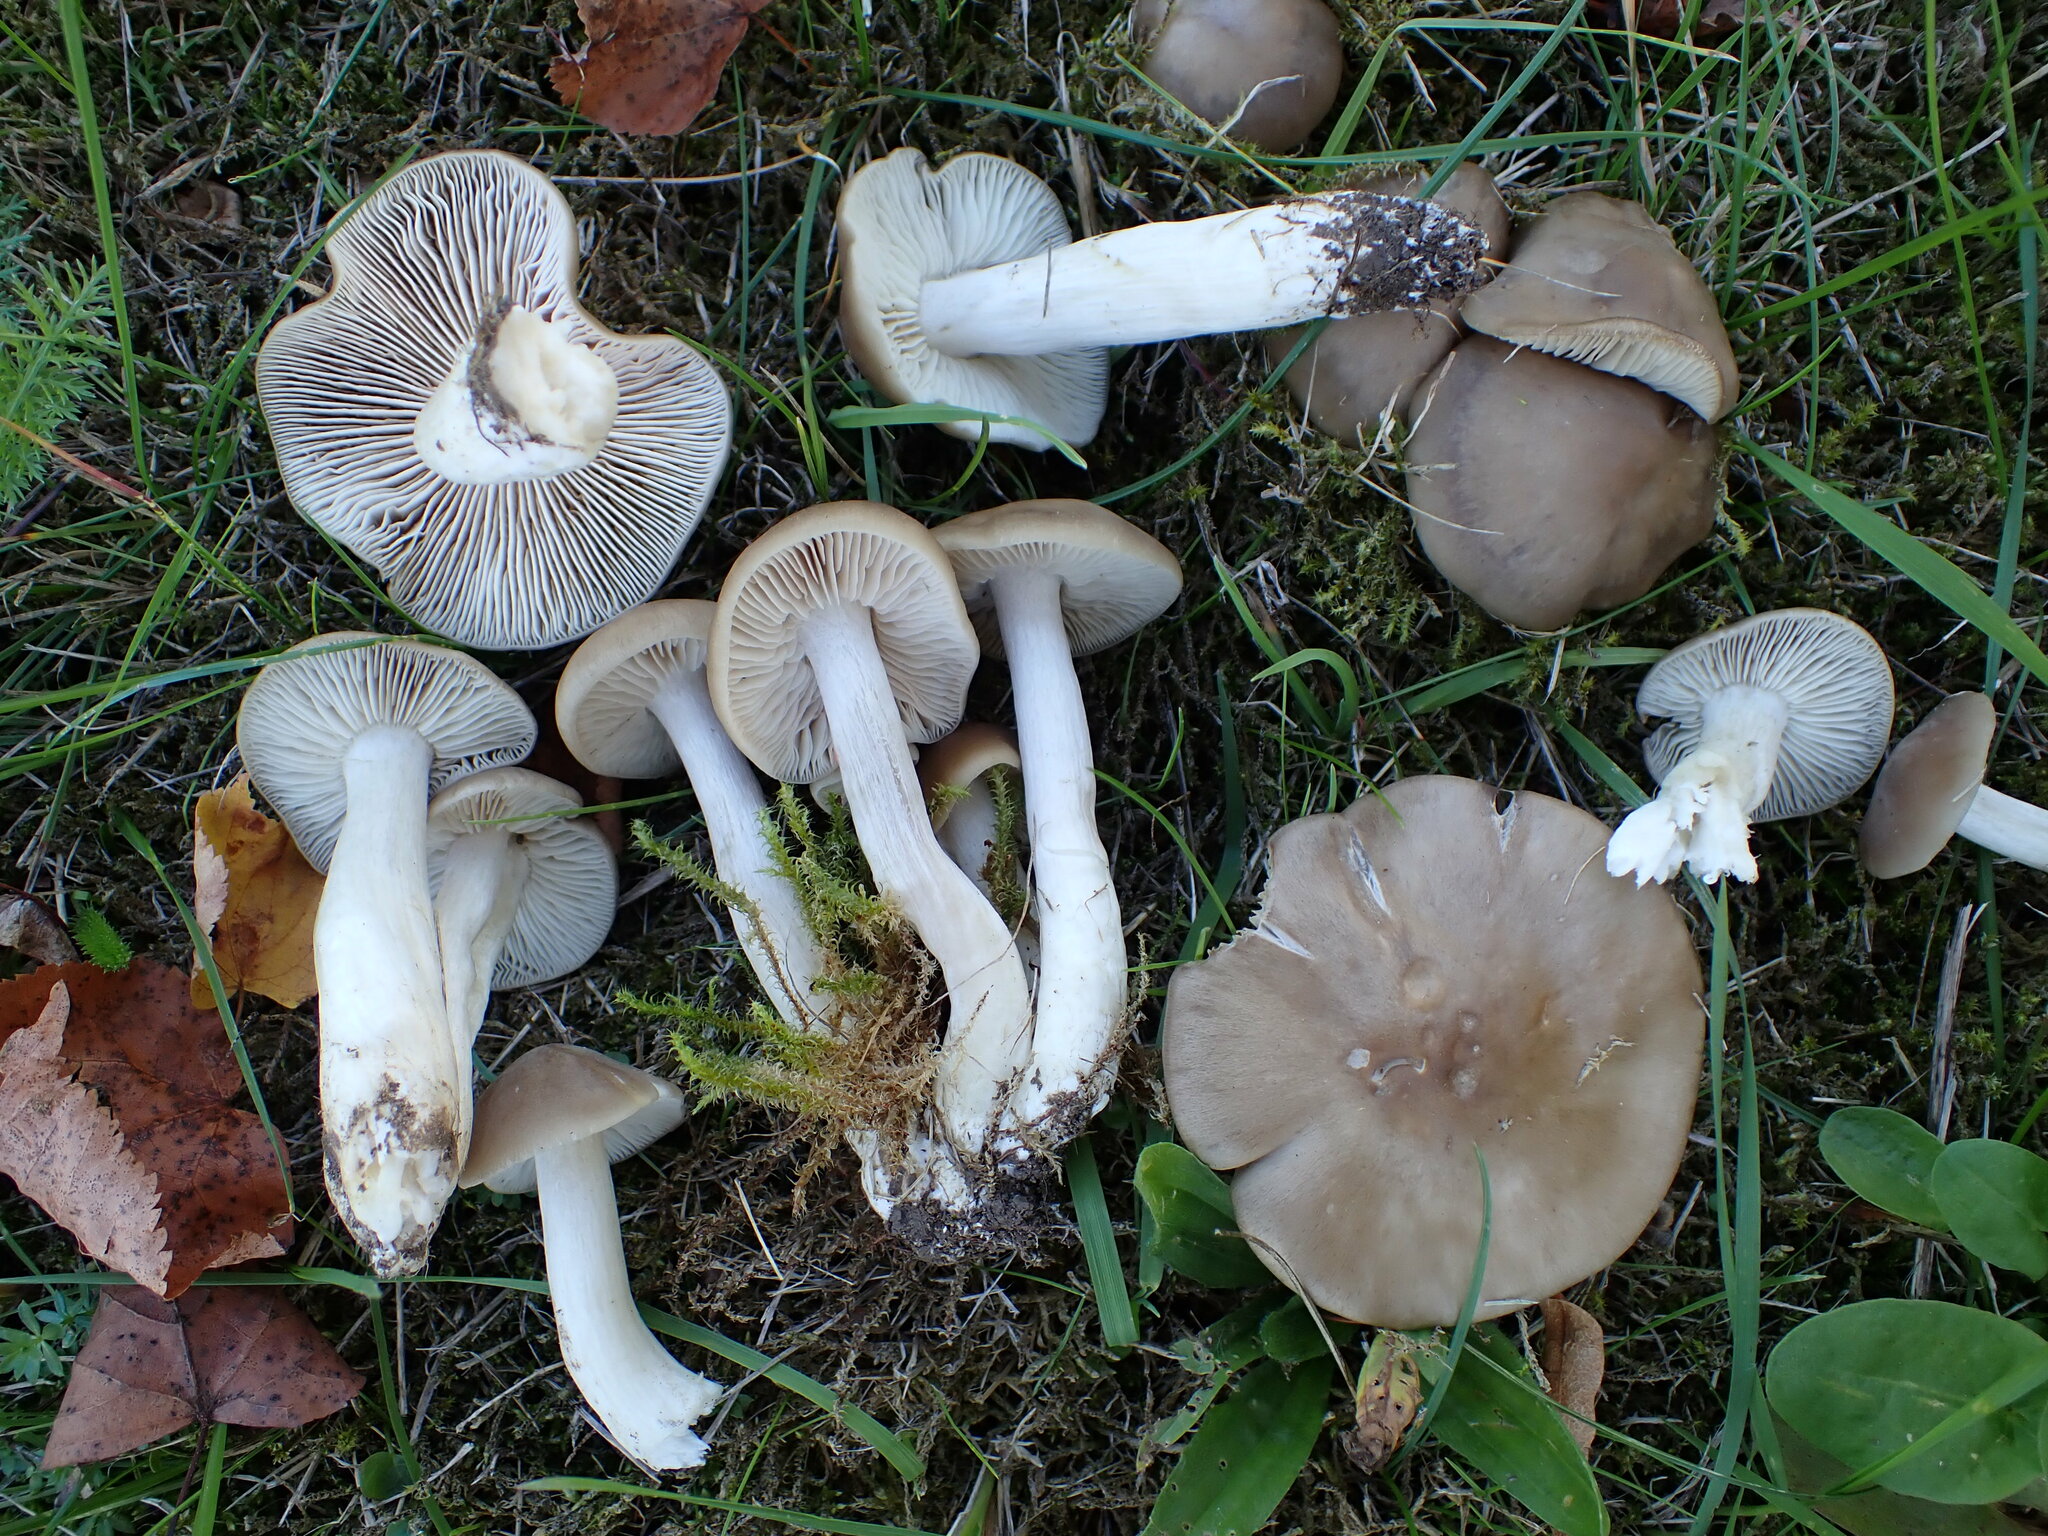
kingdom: Fungi
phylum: Basidiomycota
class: Agaricomycetes
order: Agaricales
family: Entolomataceae
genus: Entoloma
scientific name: Entoloma lividoalbum
